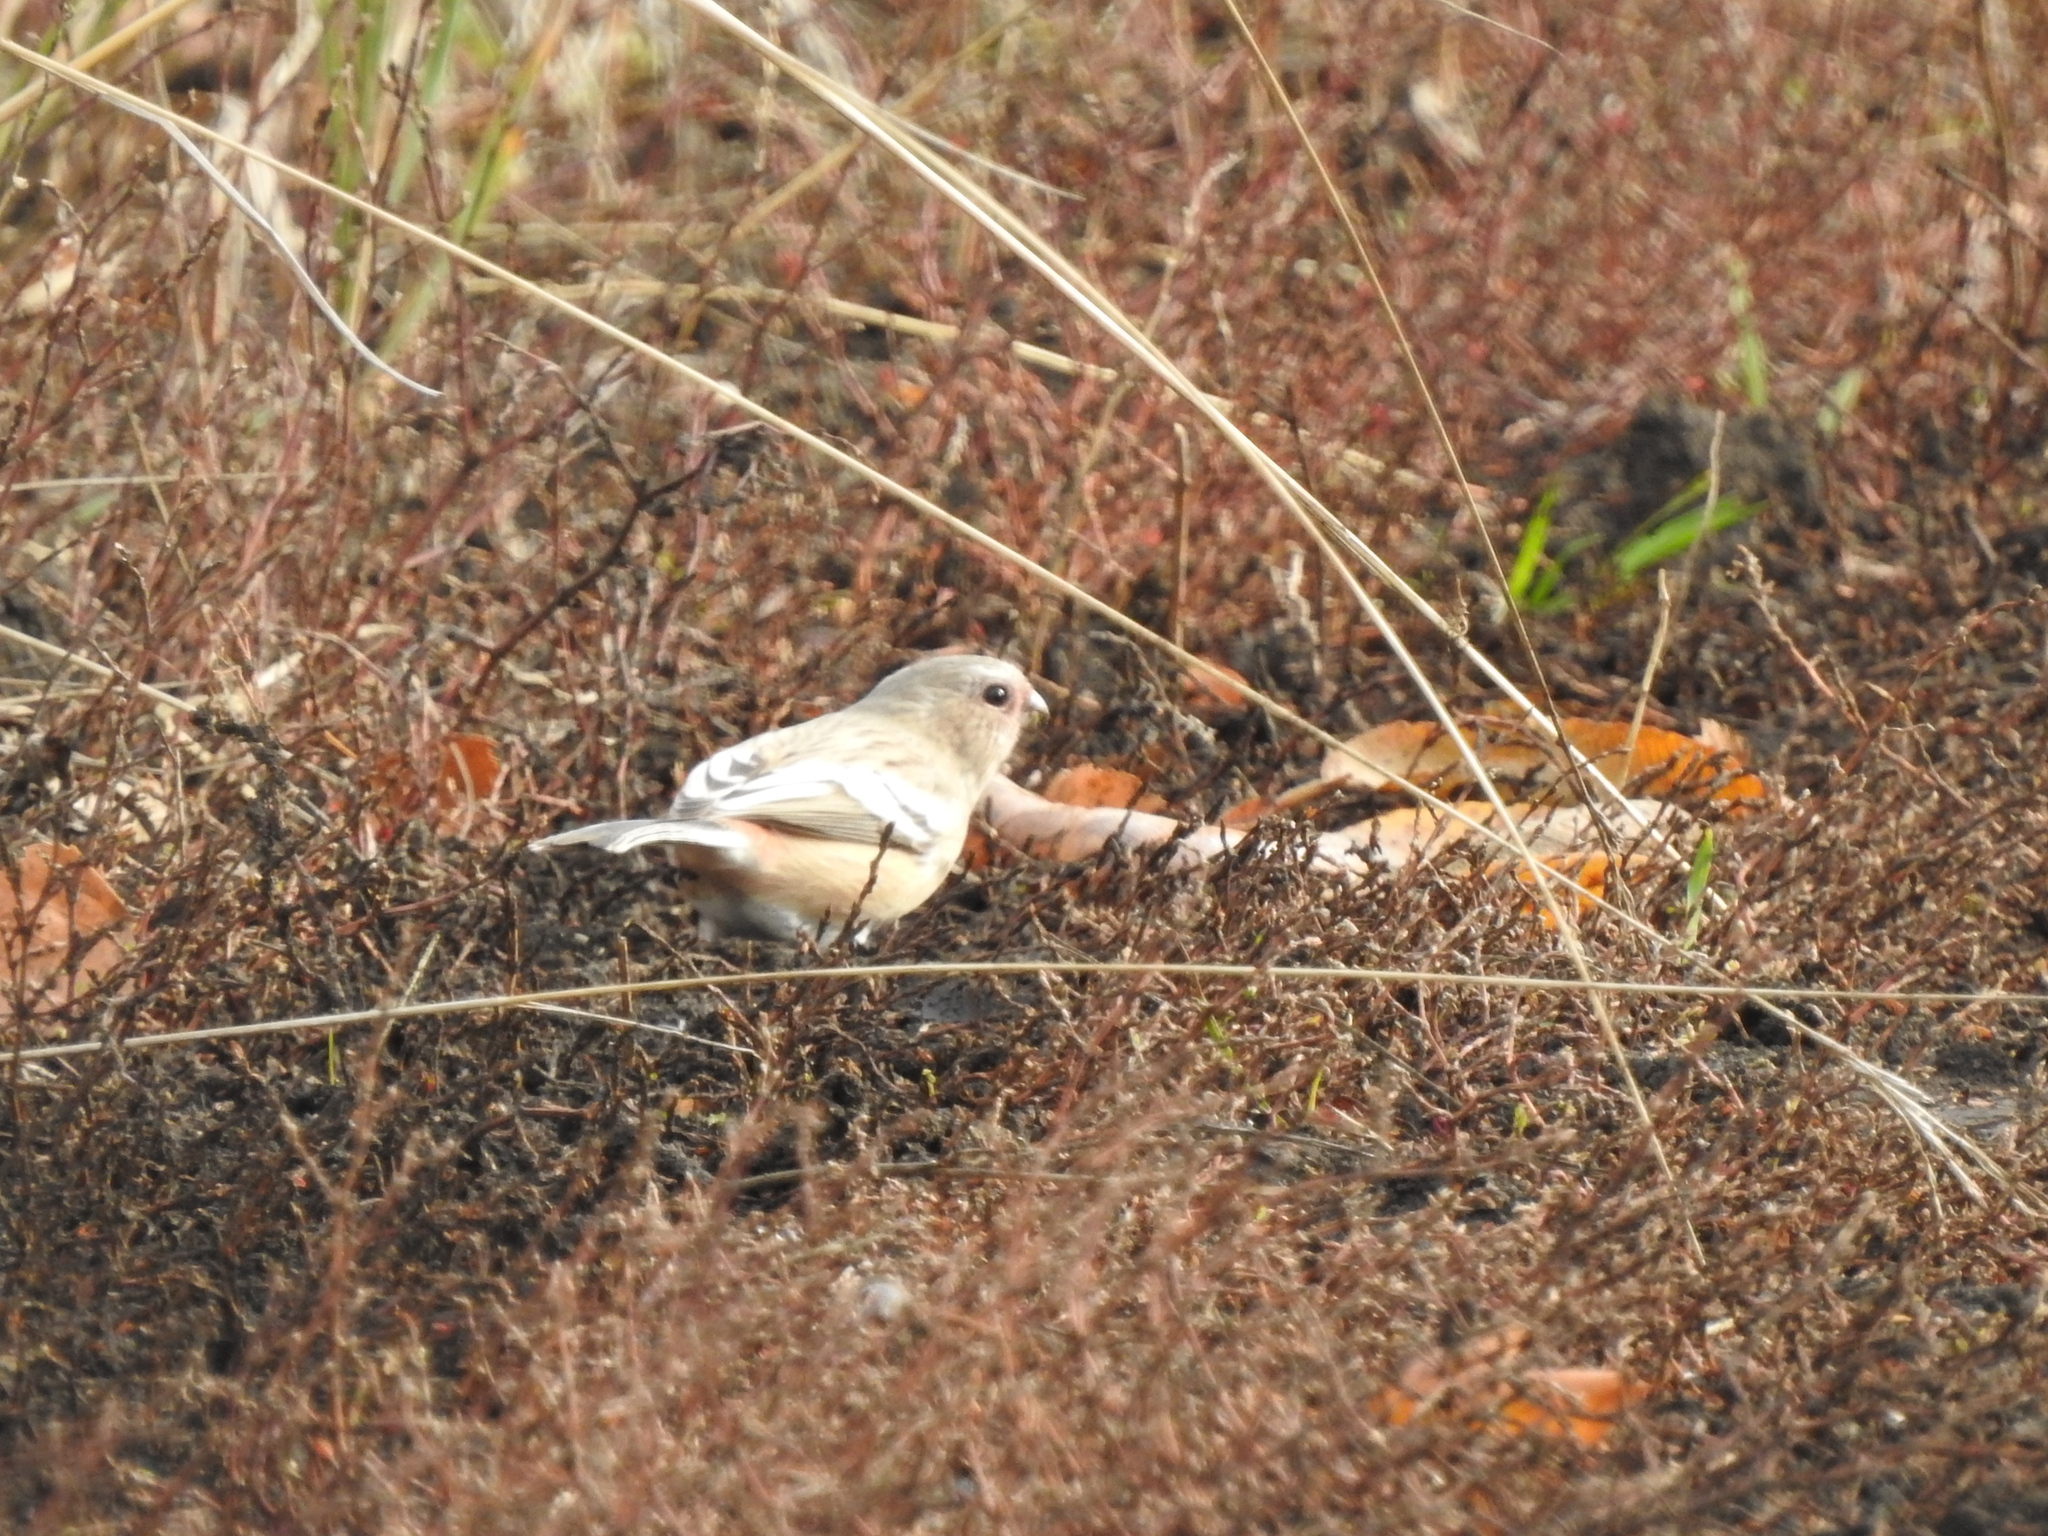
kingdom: Animalia
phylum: Chordata
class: Aves
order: Passeriformes
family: Fringillidae
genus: Carpodacus
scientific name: Carpodacus sibiricus
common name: Long-tailed rosefinch
